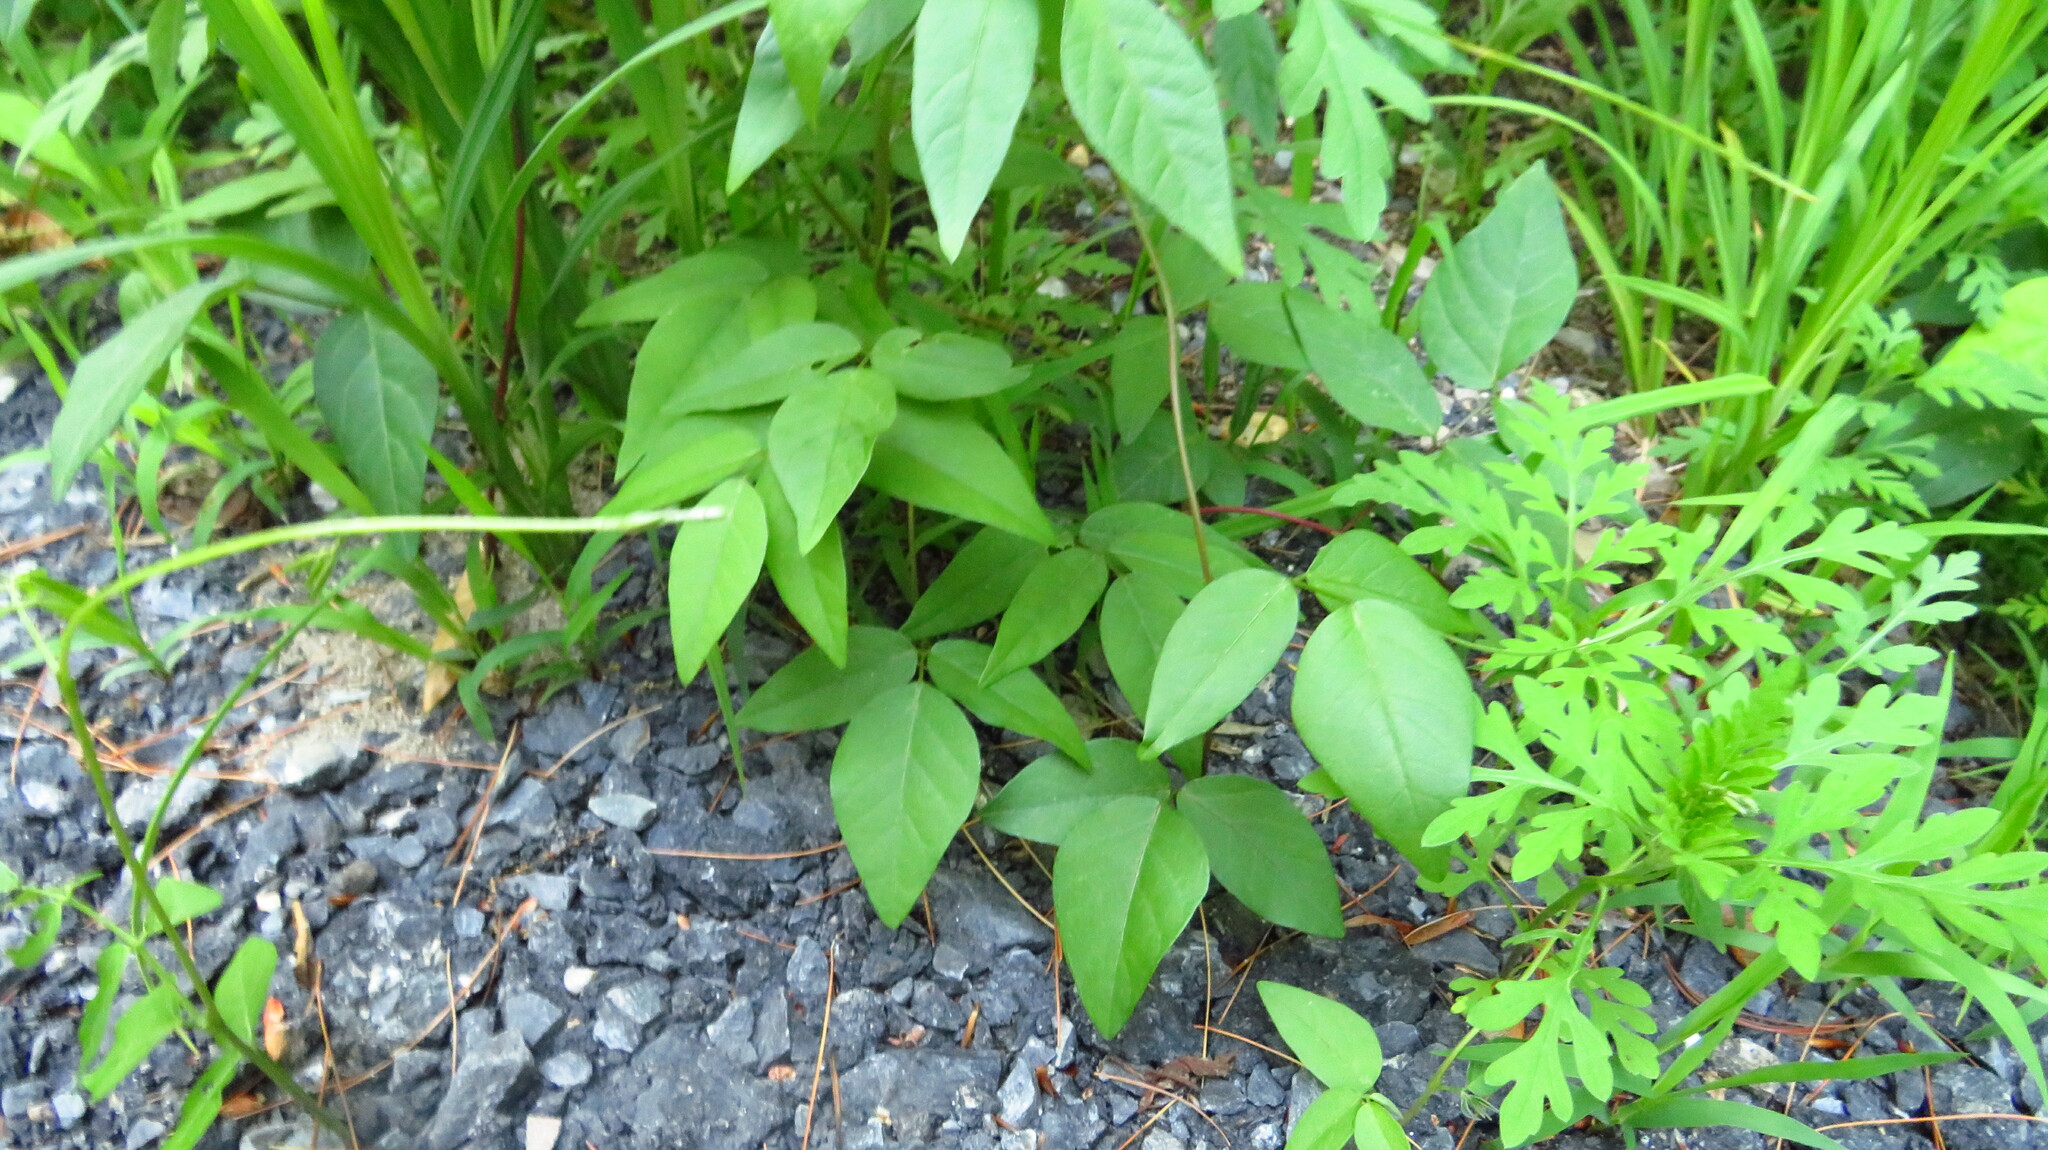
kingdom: Plantae
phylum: Tracheophyta
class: Magnoliopsida
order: Fabales
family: Fabaceae
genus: Apios
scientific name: Apios americana
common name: American potato-bean
